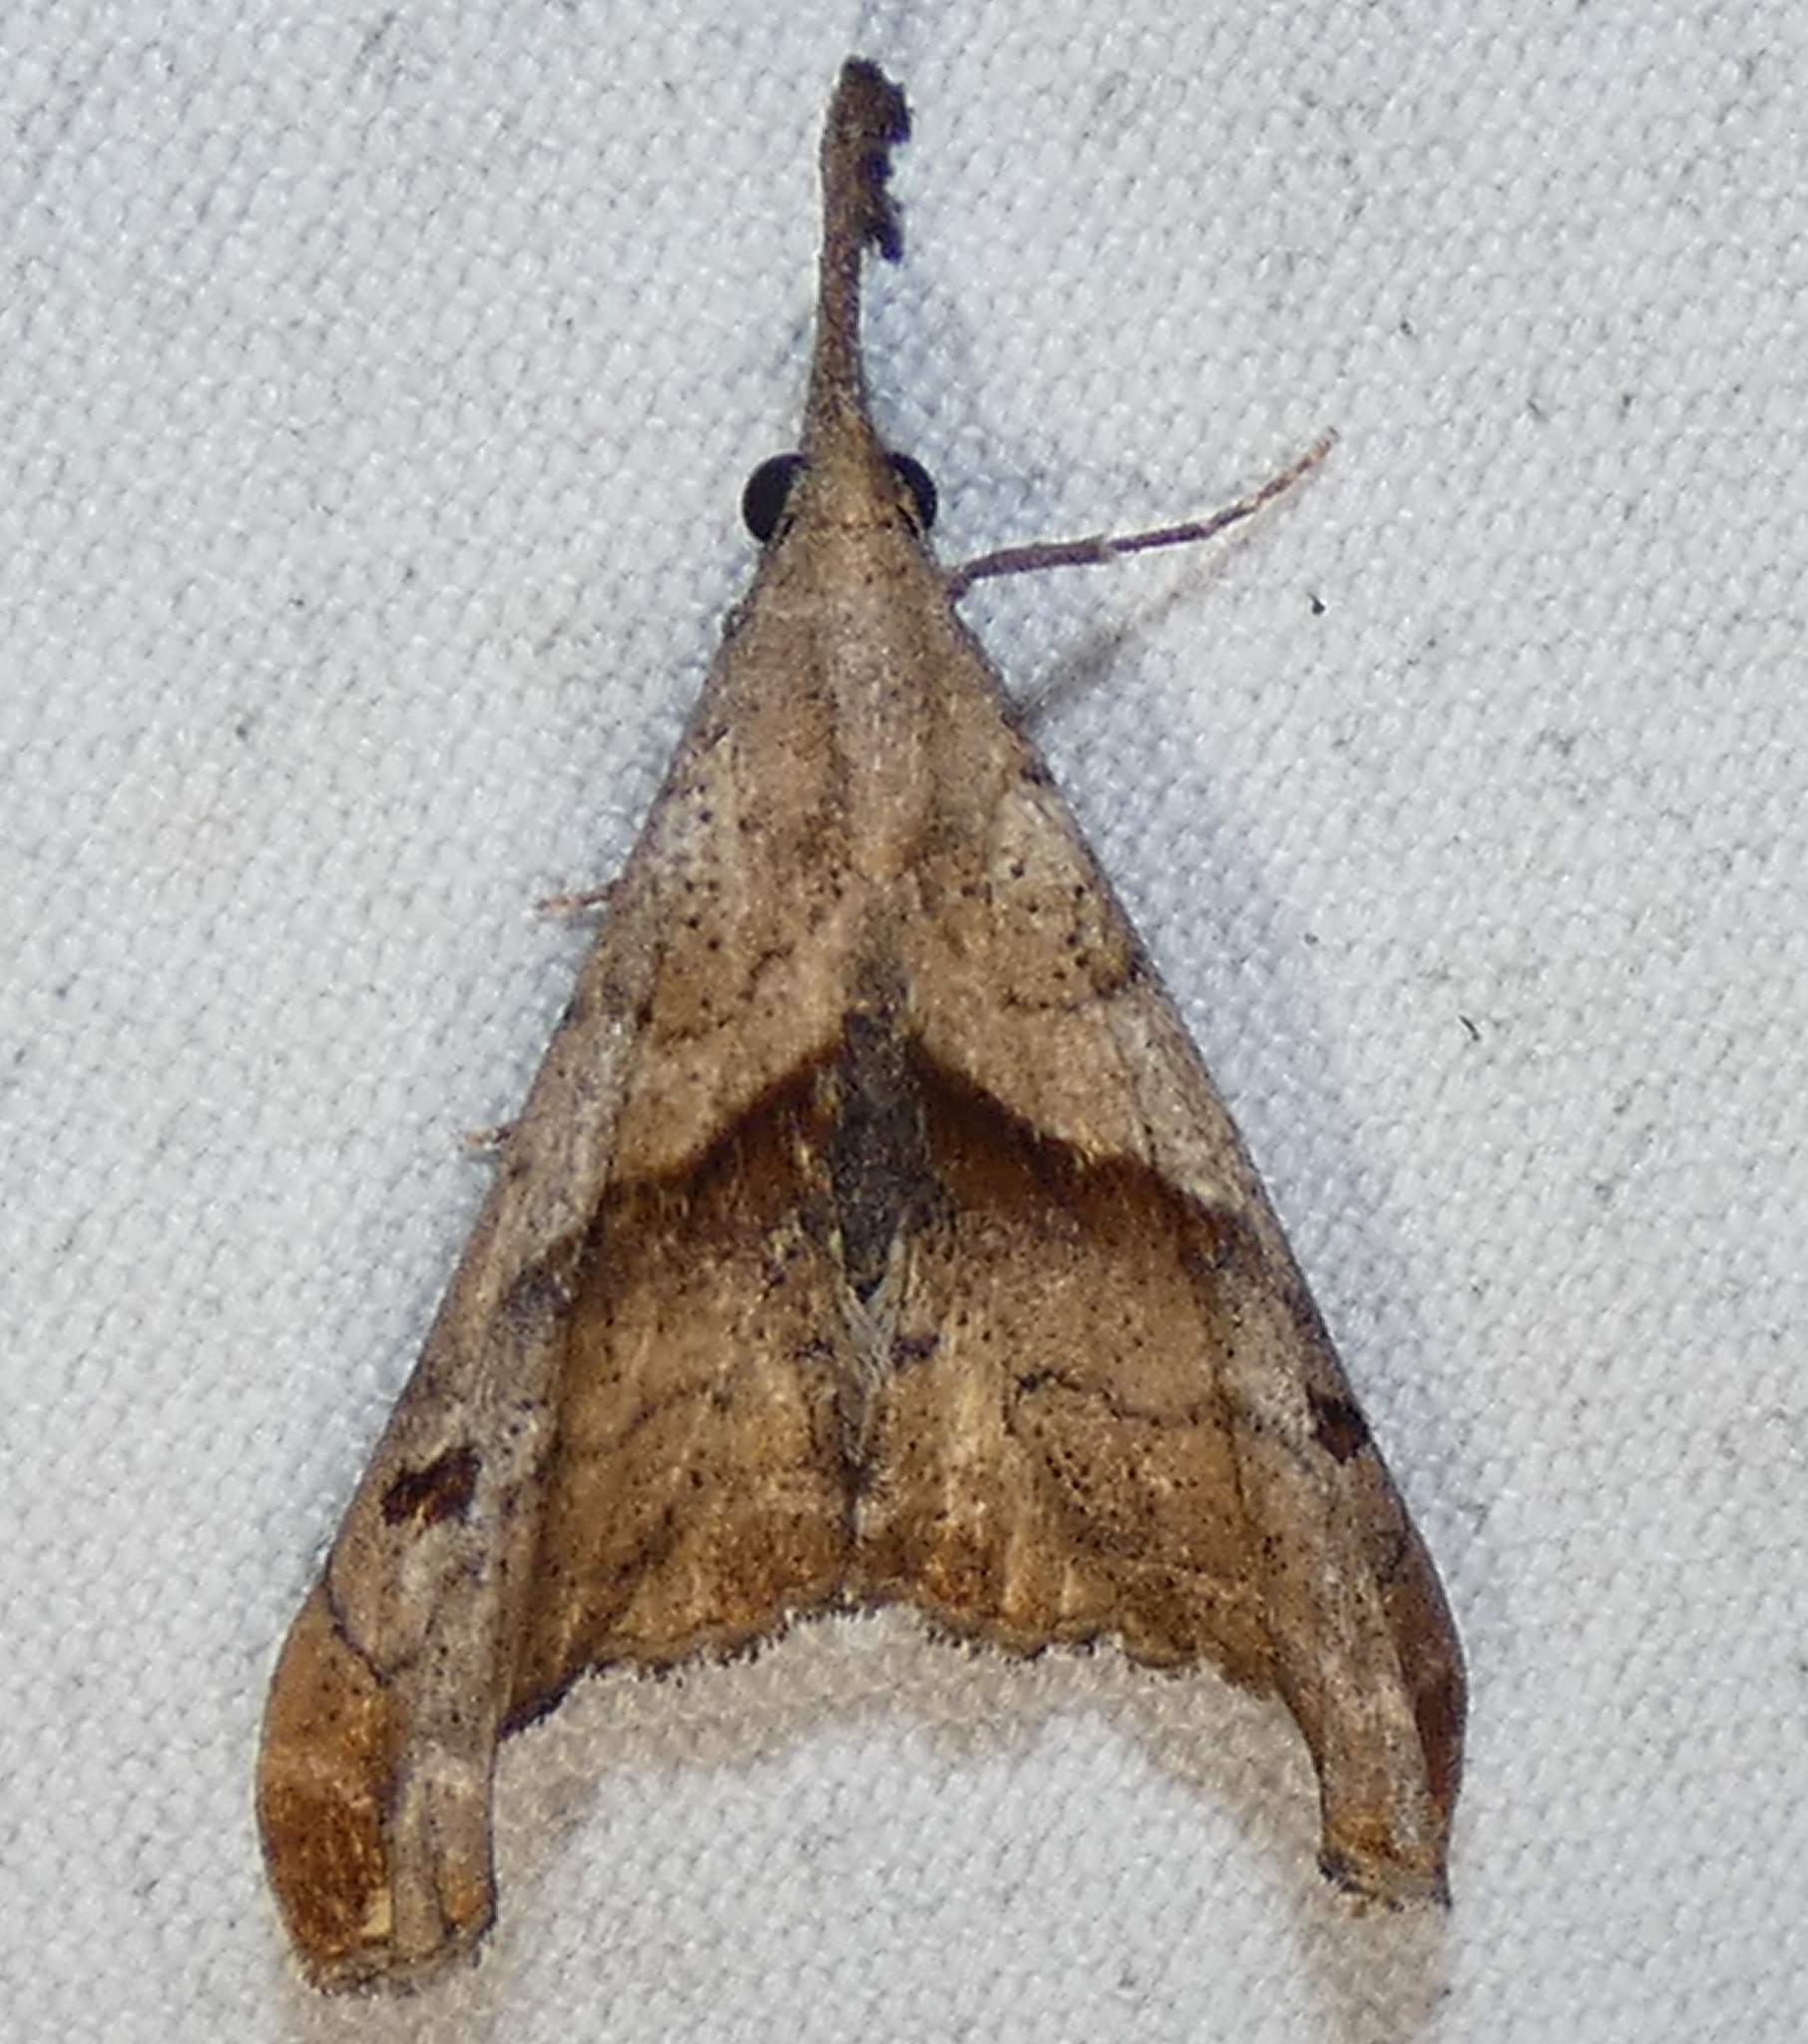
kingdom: Animalia
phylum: Arthropoda
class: Insecta
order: Lepidoptera
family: Erebidae
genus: Palthis
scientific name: Palthis angulalis
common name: Dark-spotted palthis moth
